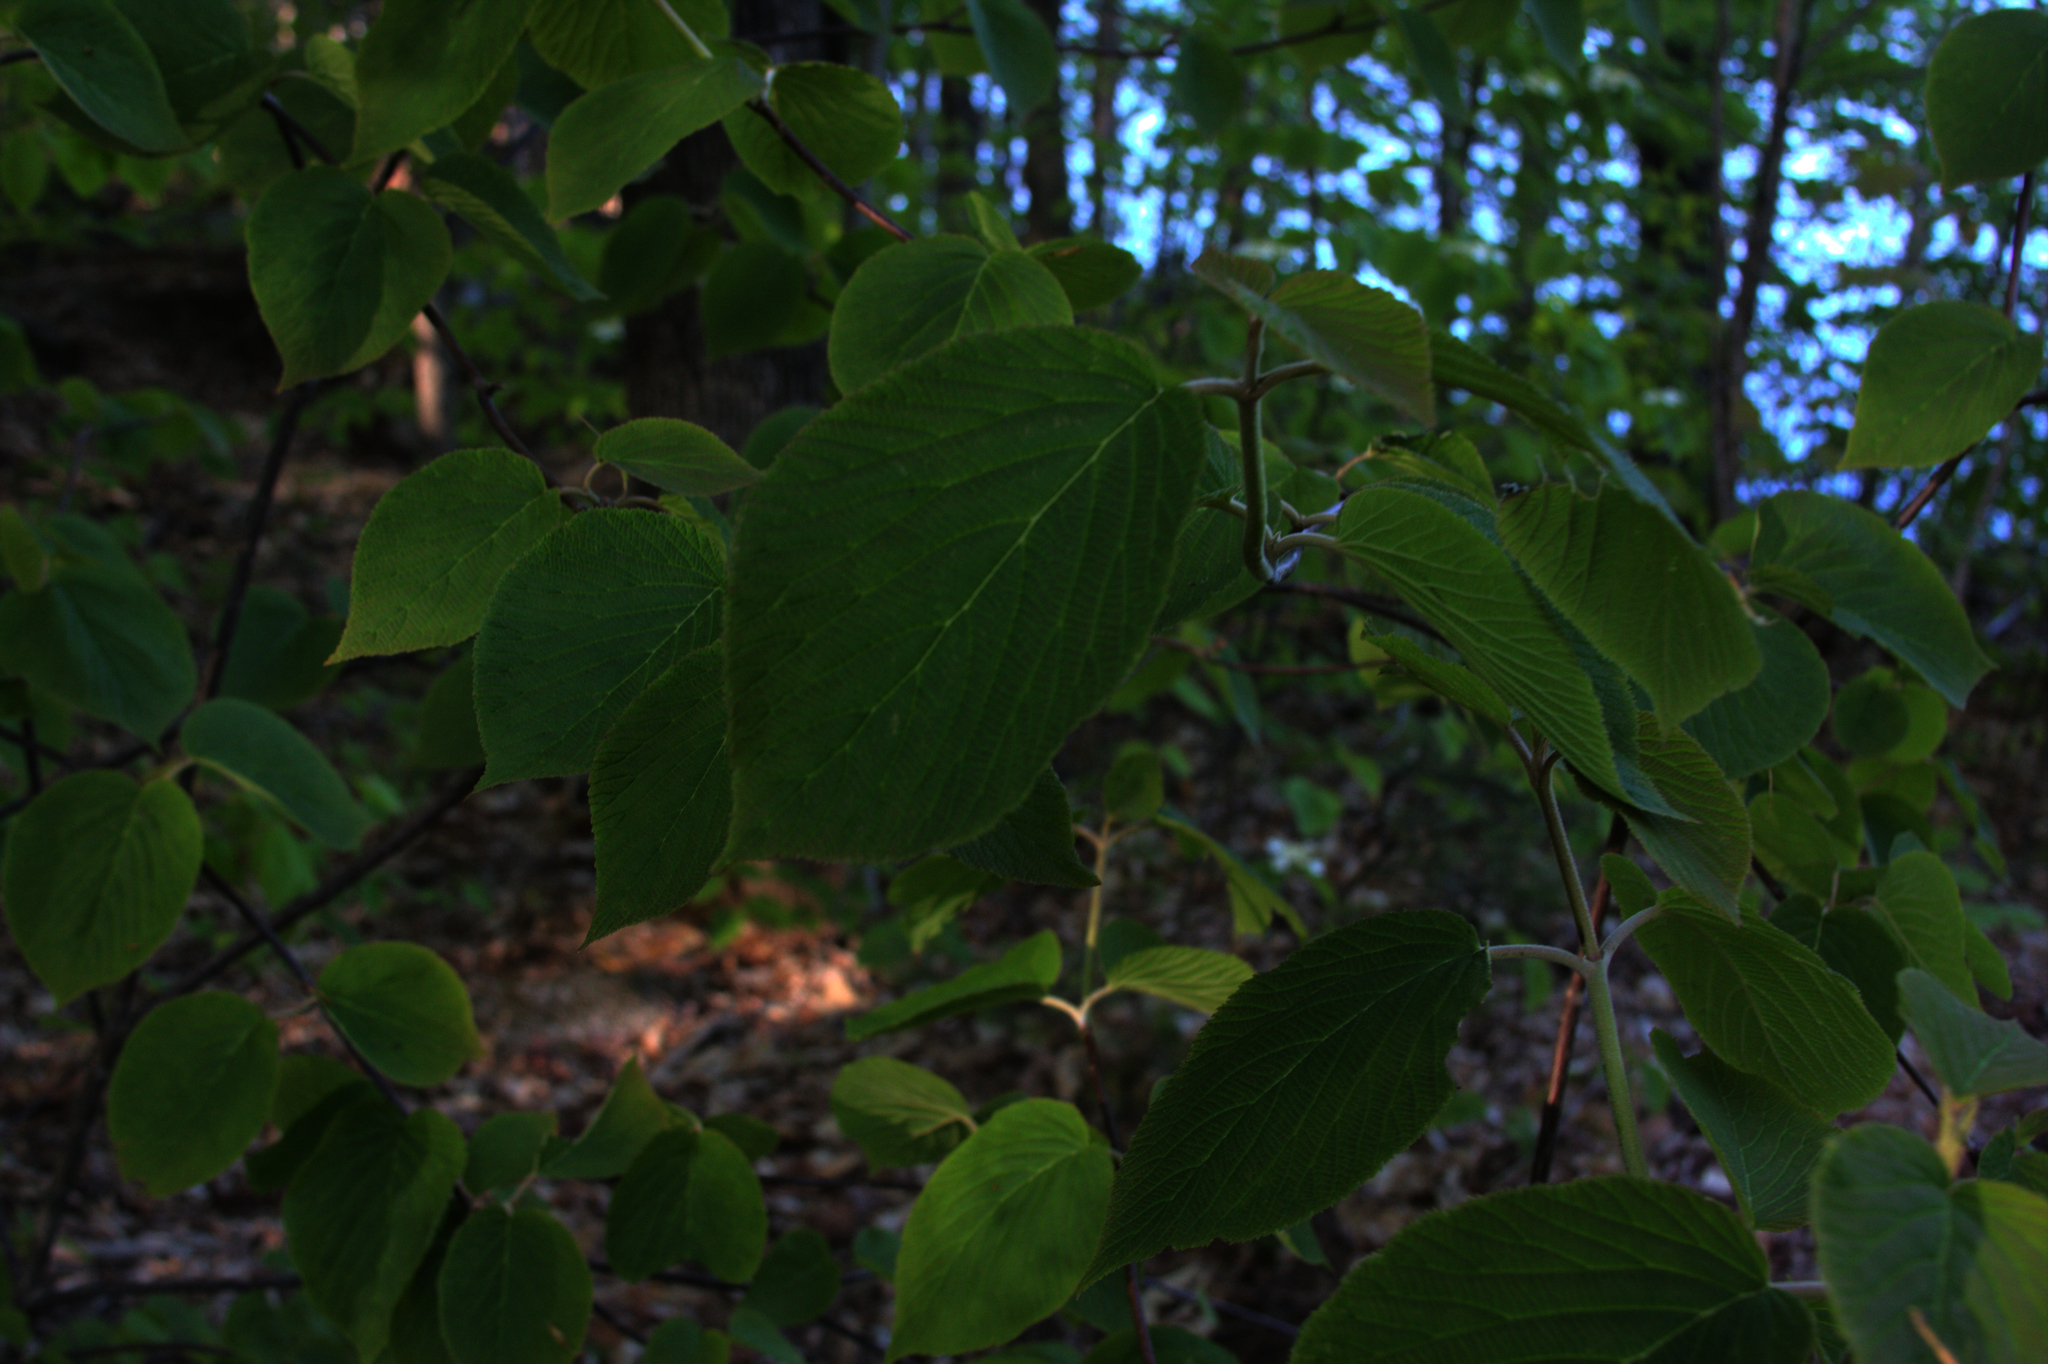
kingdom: Plantae
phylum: Tracheophyta
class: Magnoliopsida
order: Dipsacales
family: Viburnaceae
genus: Viburnum
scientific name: Viburnum lantanoides
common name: Hobblebush
